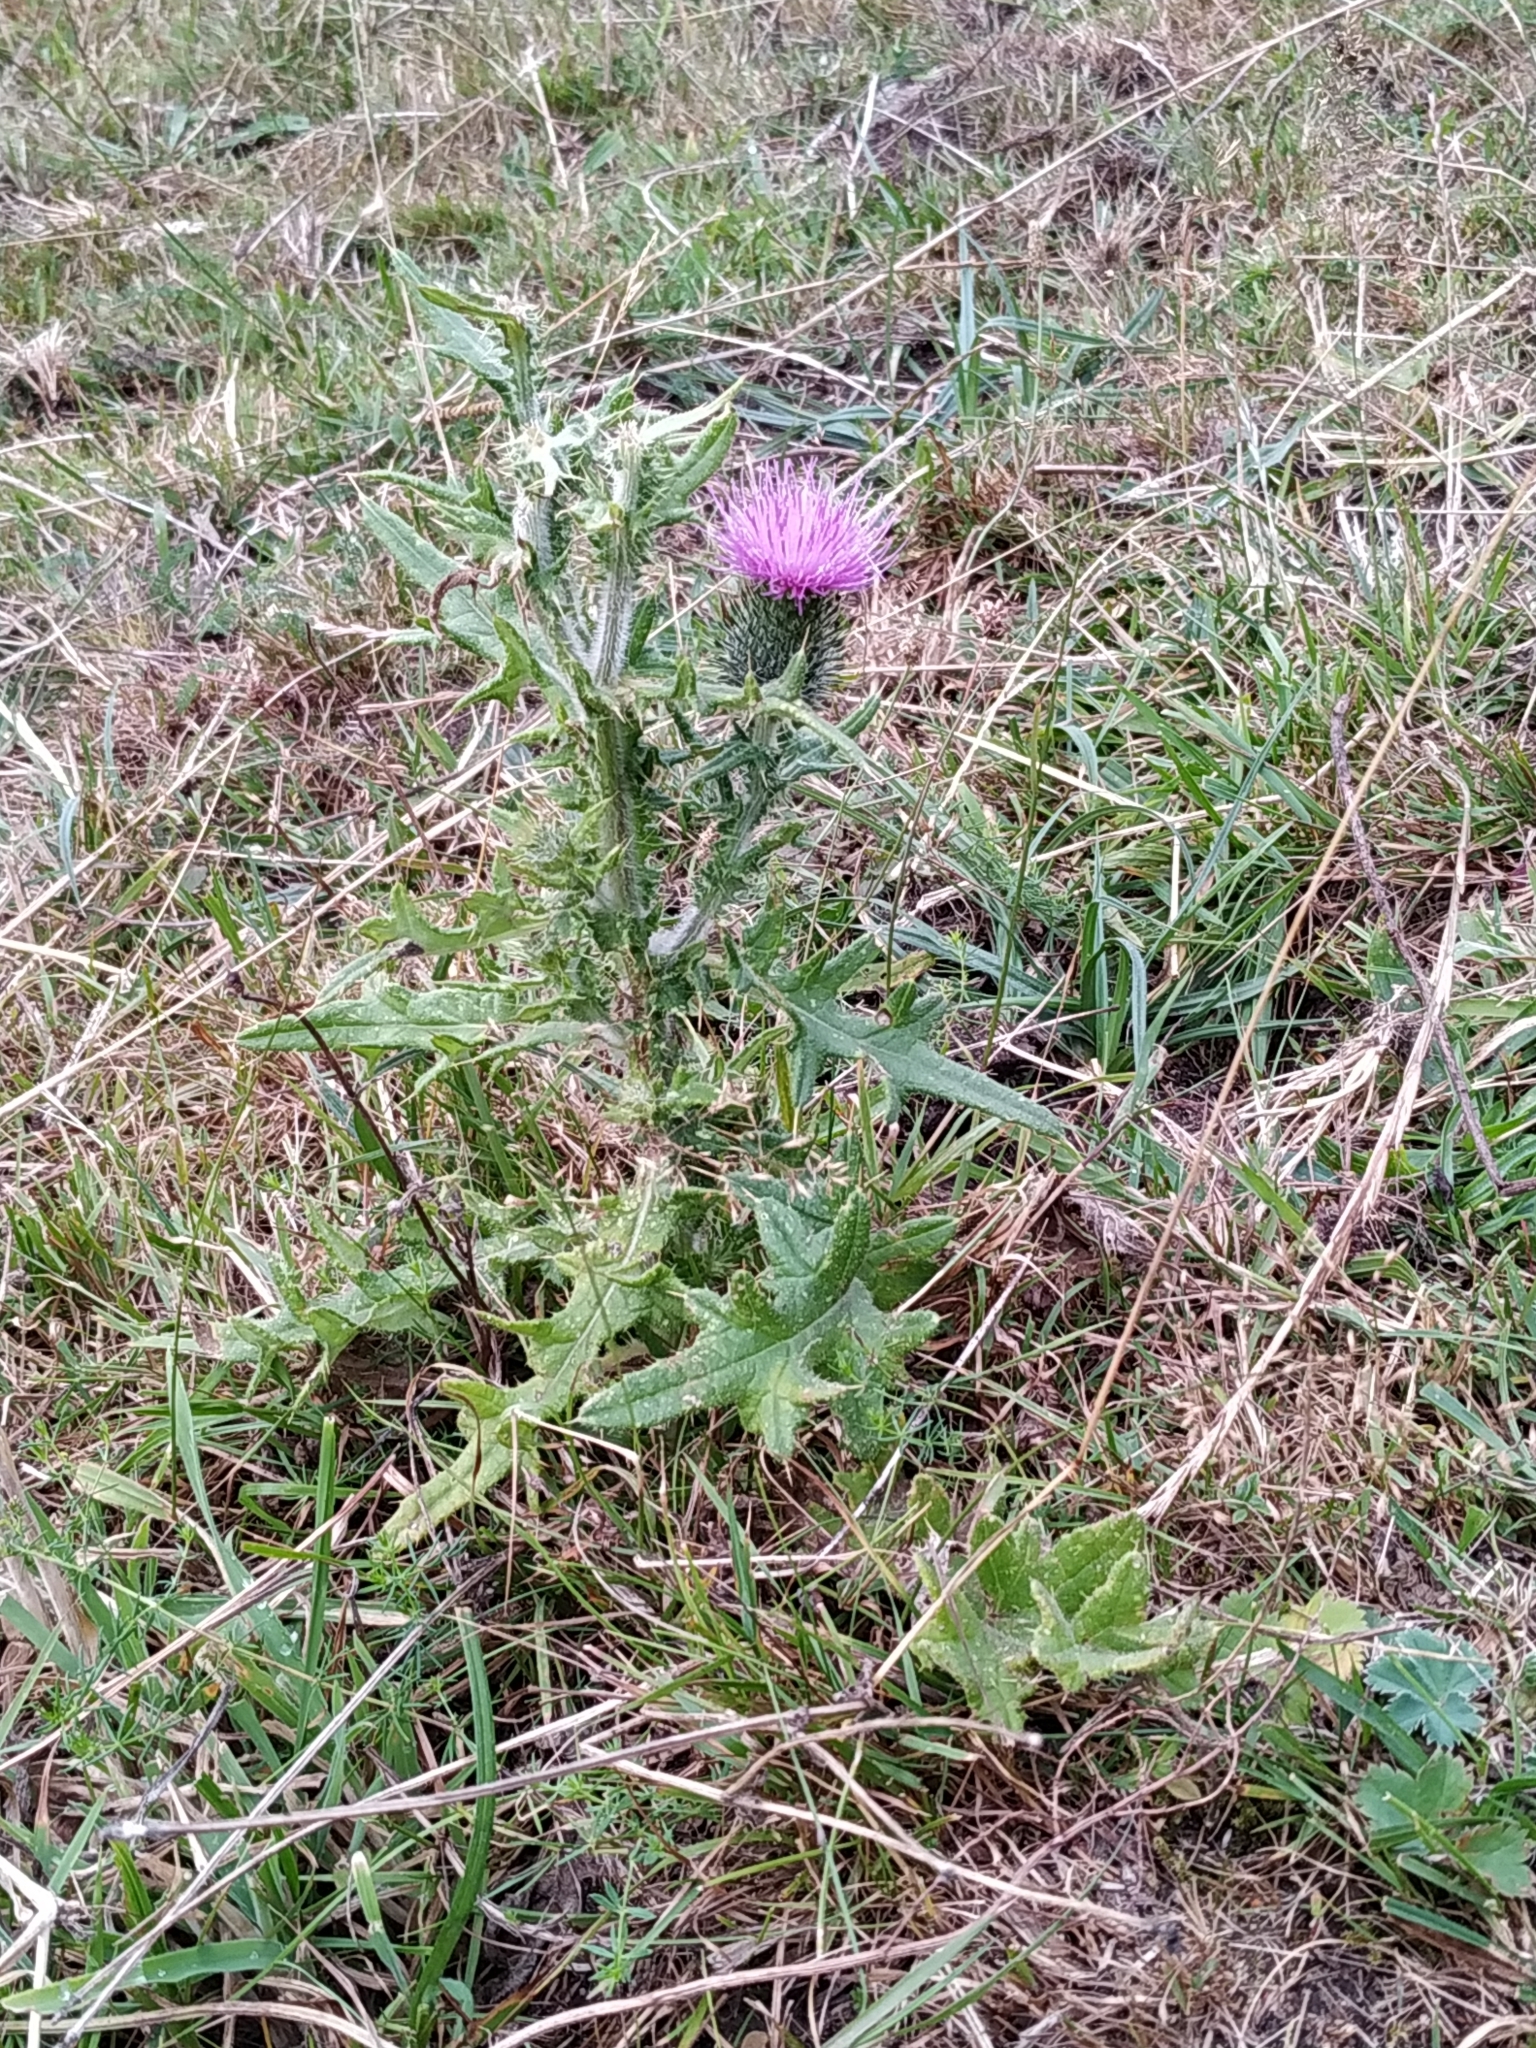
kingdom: Plantae
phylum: Tracheophyta
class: Magnoliopsida
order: Asterales
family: Asteraceae
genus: Cirsium
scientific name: Cirsium vulgare
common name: Bull thistle
